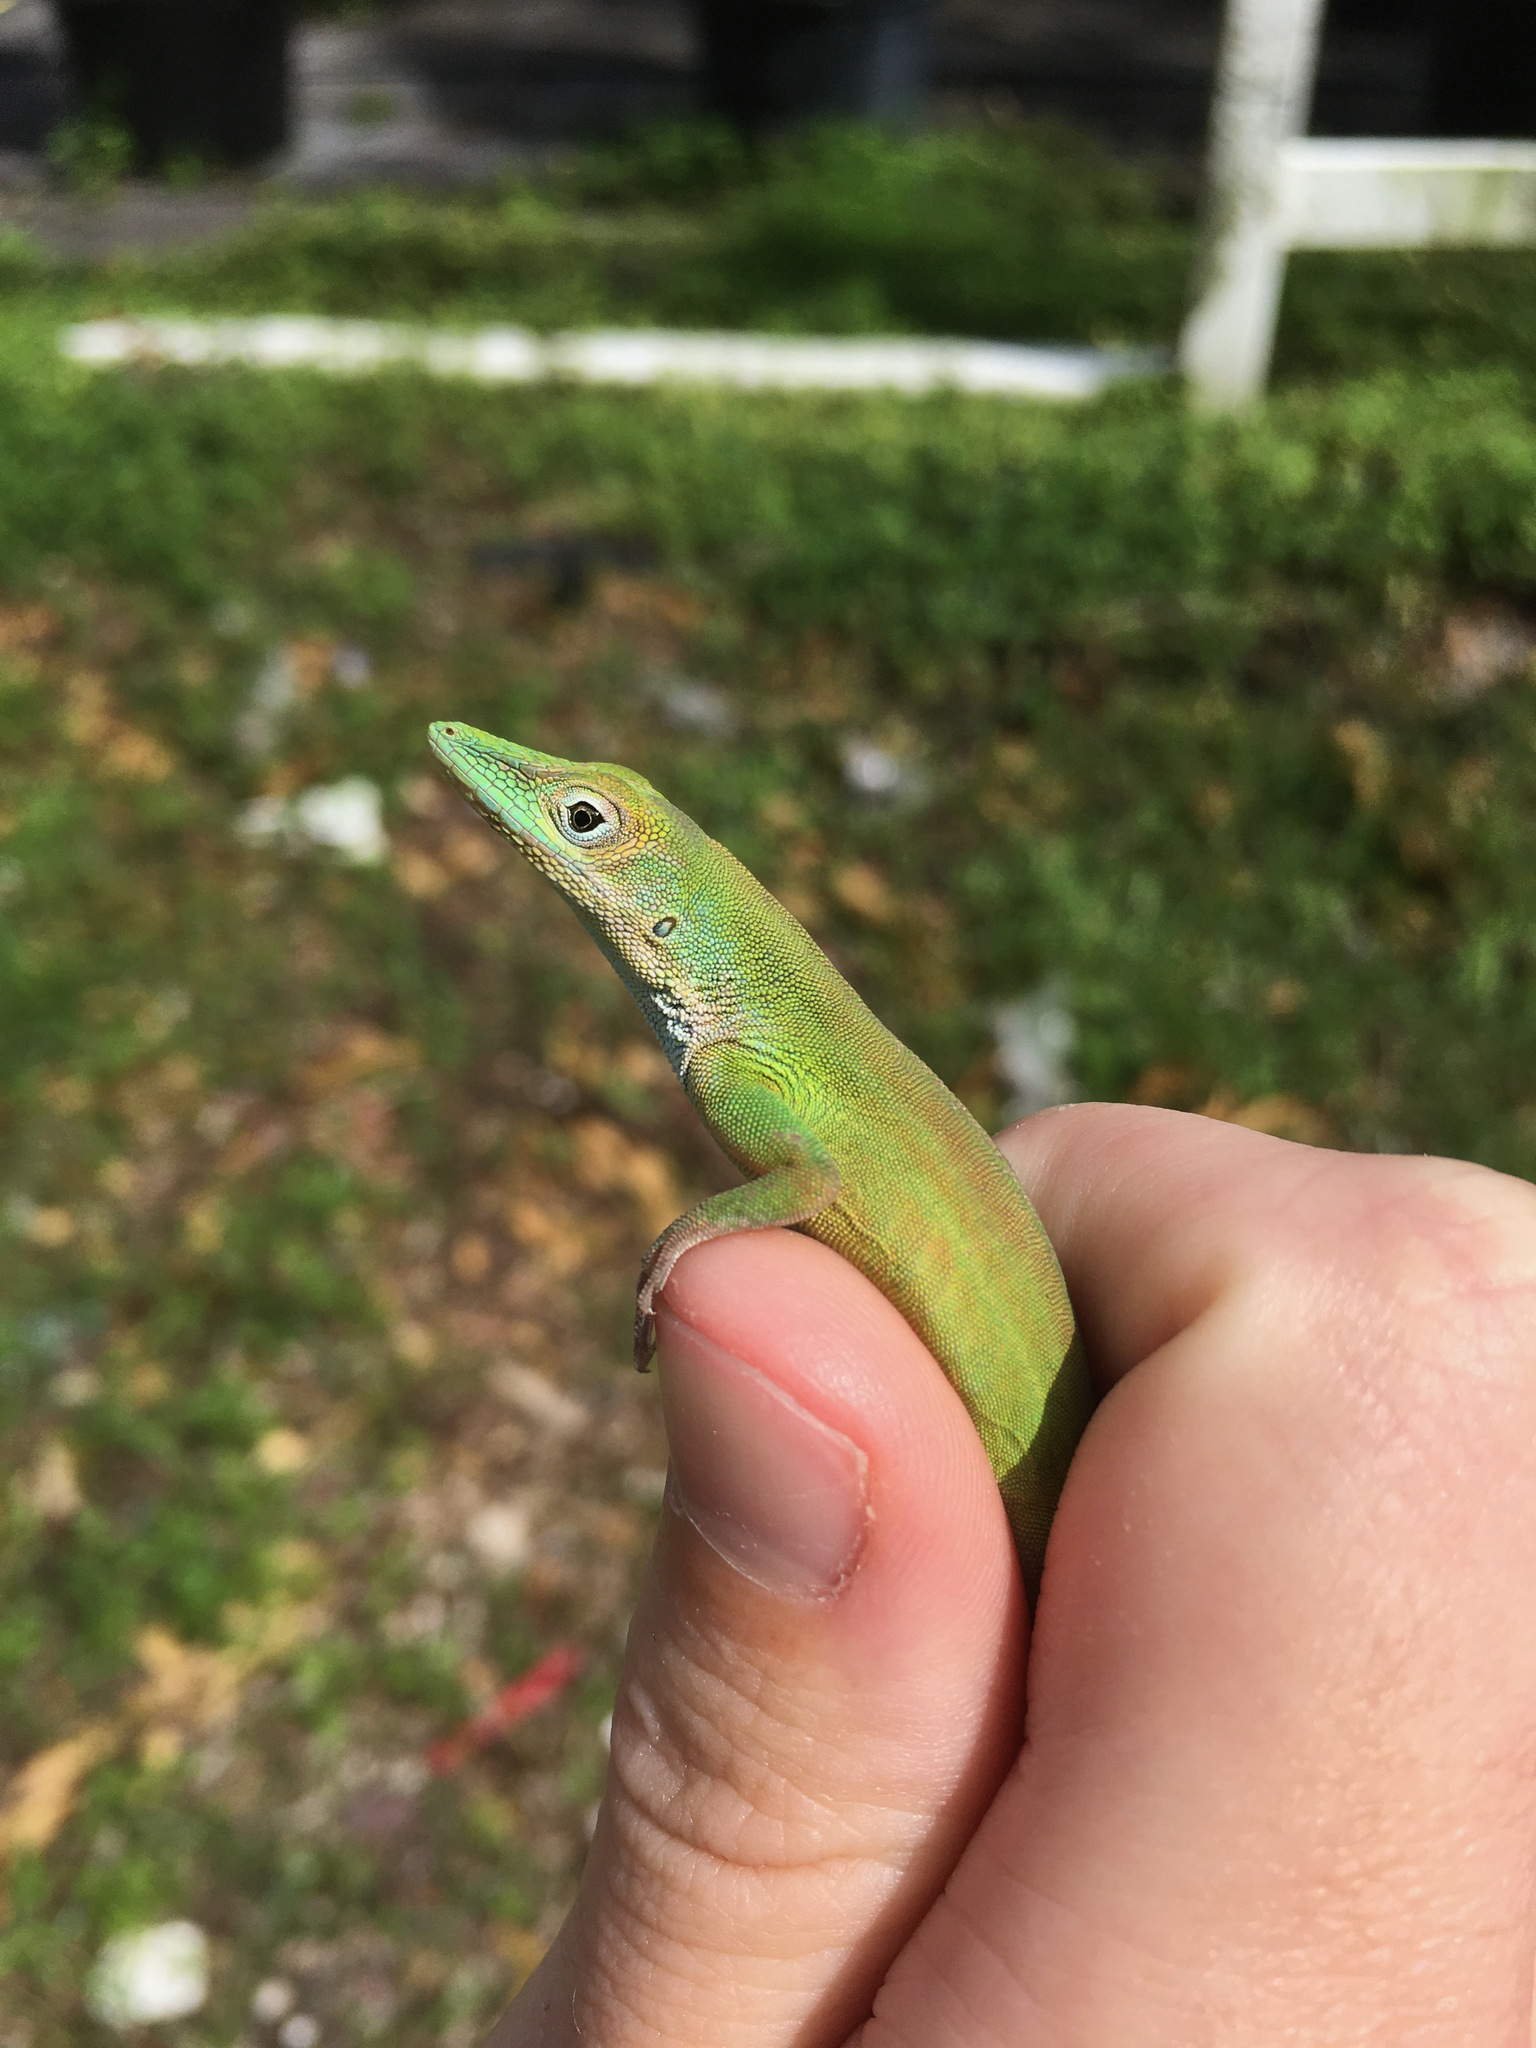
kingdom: Animalia
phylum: Chordata
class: Squamata
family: Dactyloidae
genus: Anolis
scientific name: Anolis chlorocyanus
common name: Hispaniolan green anole
